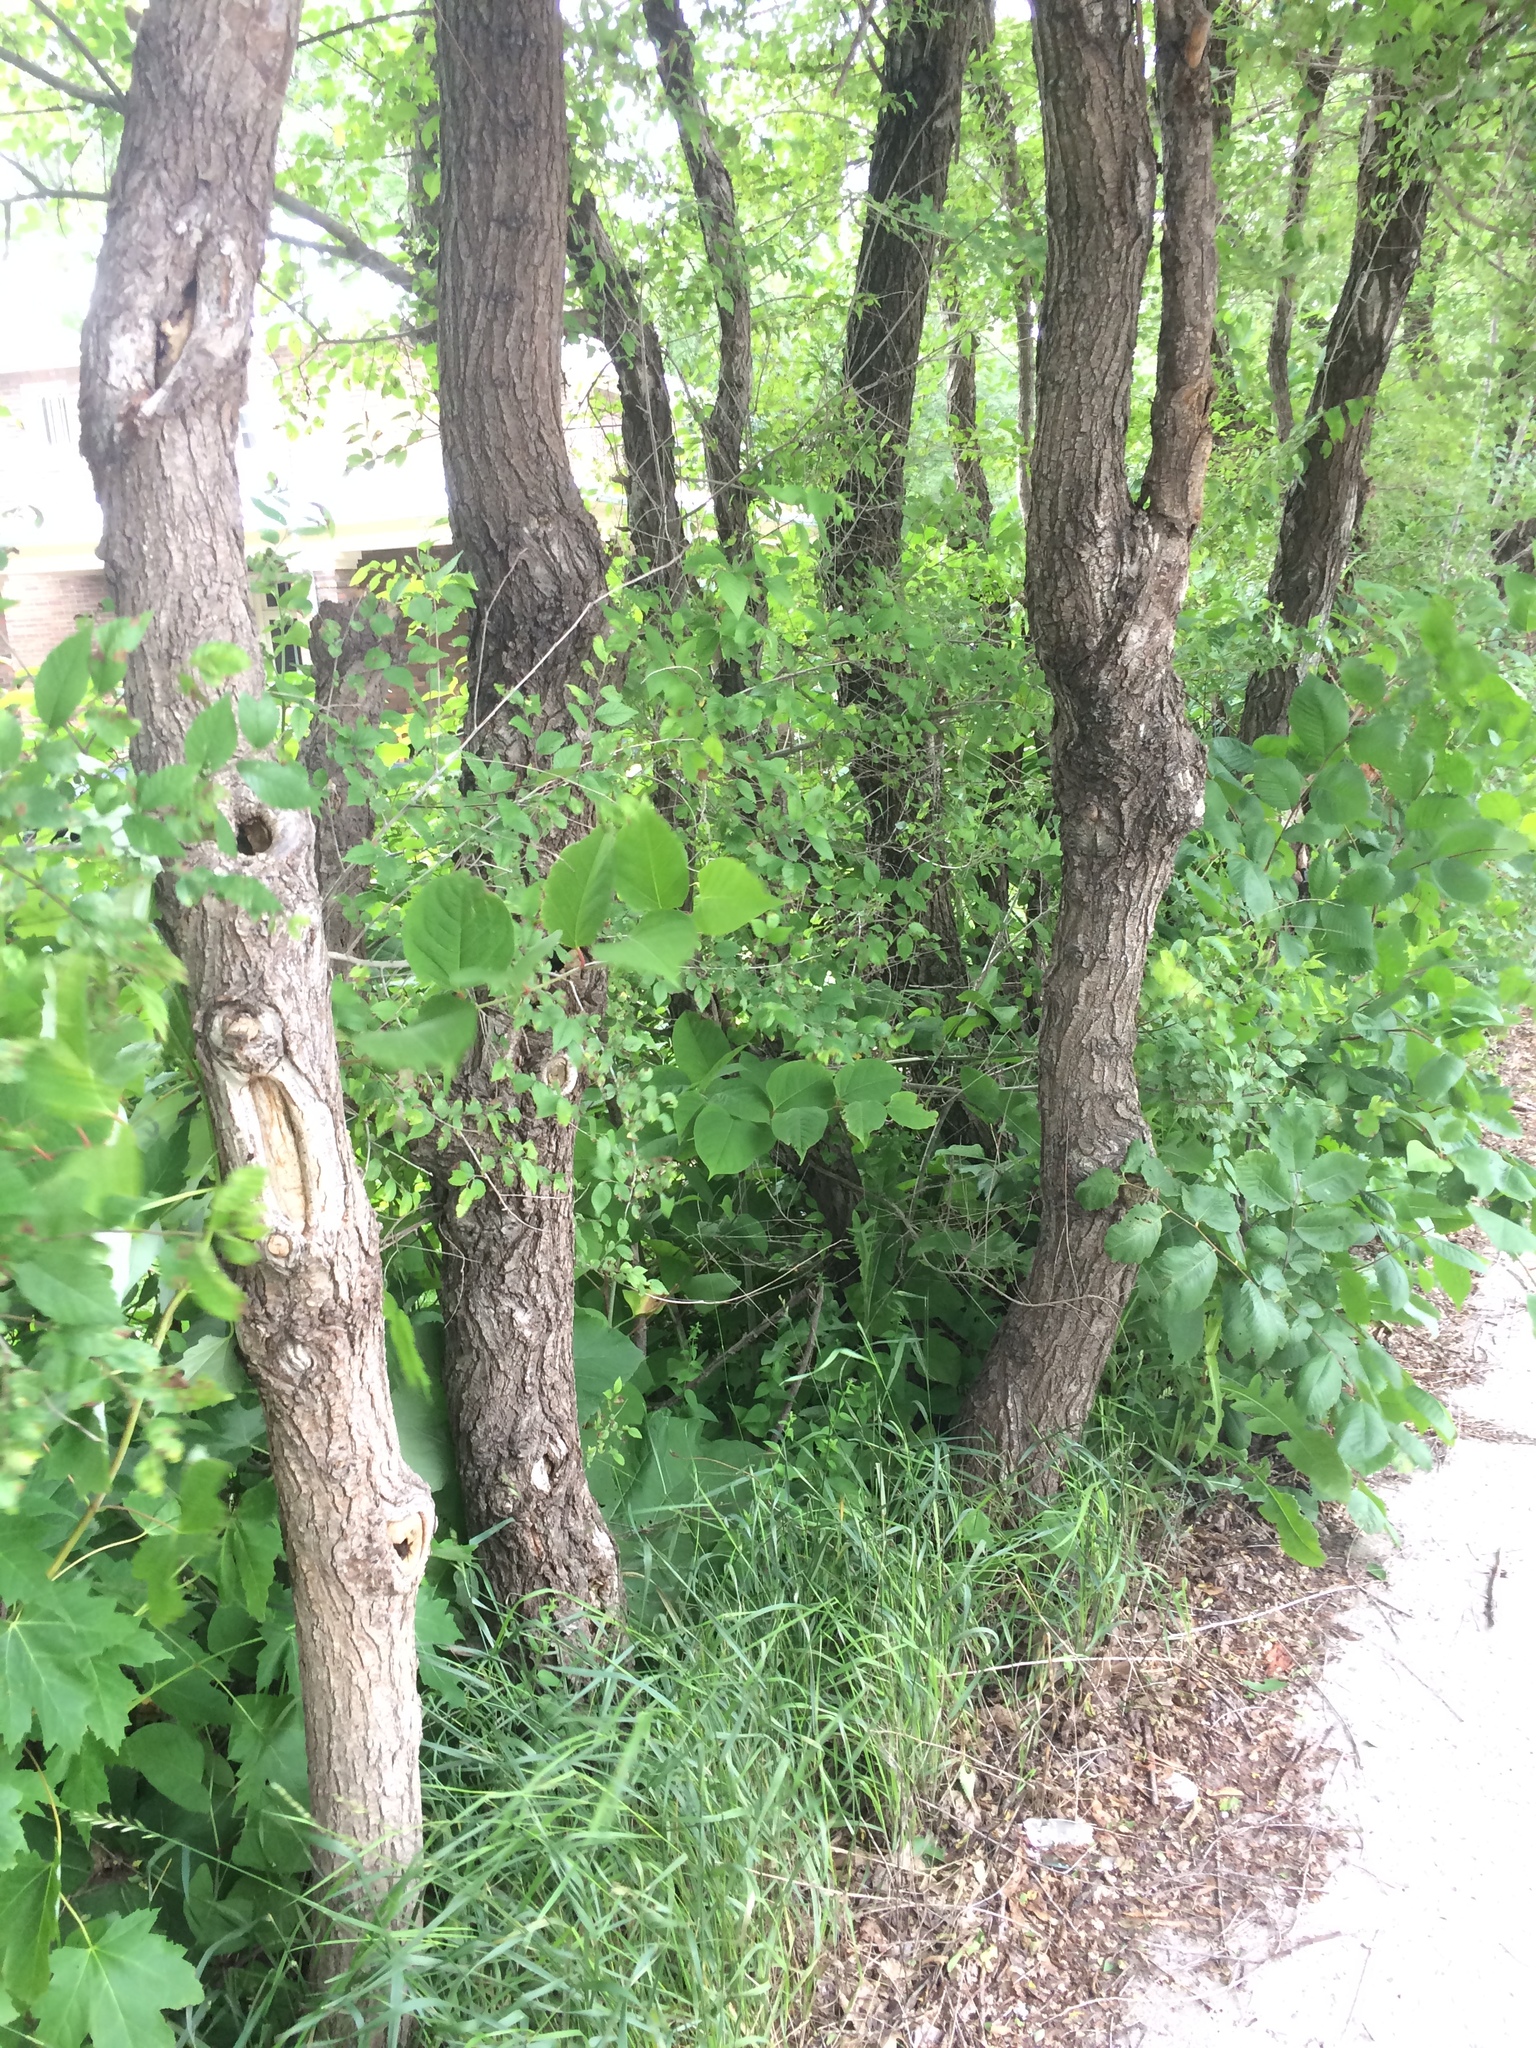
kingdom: Plantae
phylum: Tracheophyta
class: Magnoliopsida
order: Caryophyllales
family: Polygonaceae
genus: Reynoutria
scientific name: Reynoutria japonica
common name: Japanese knotweed
